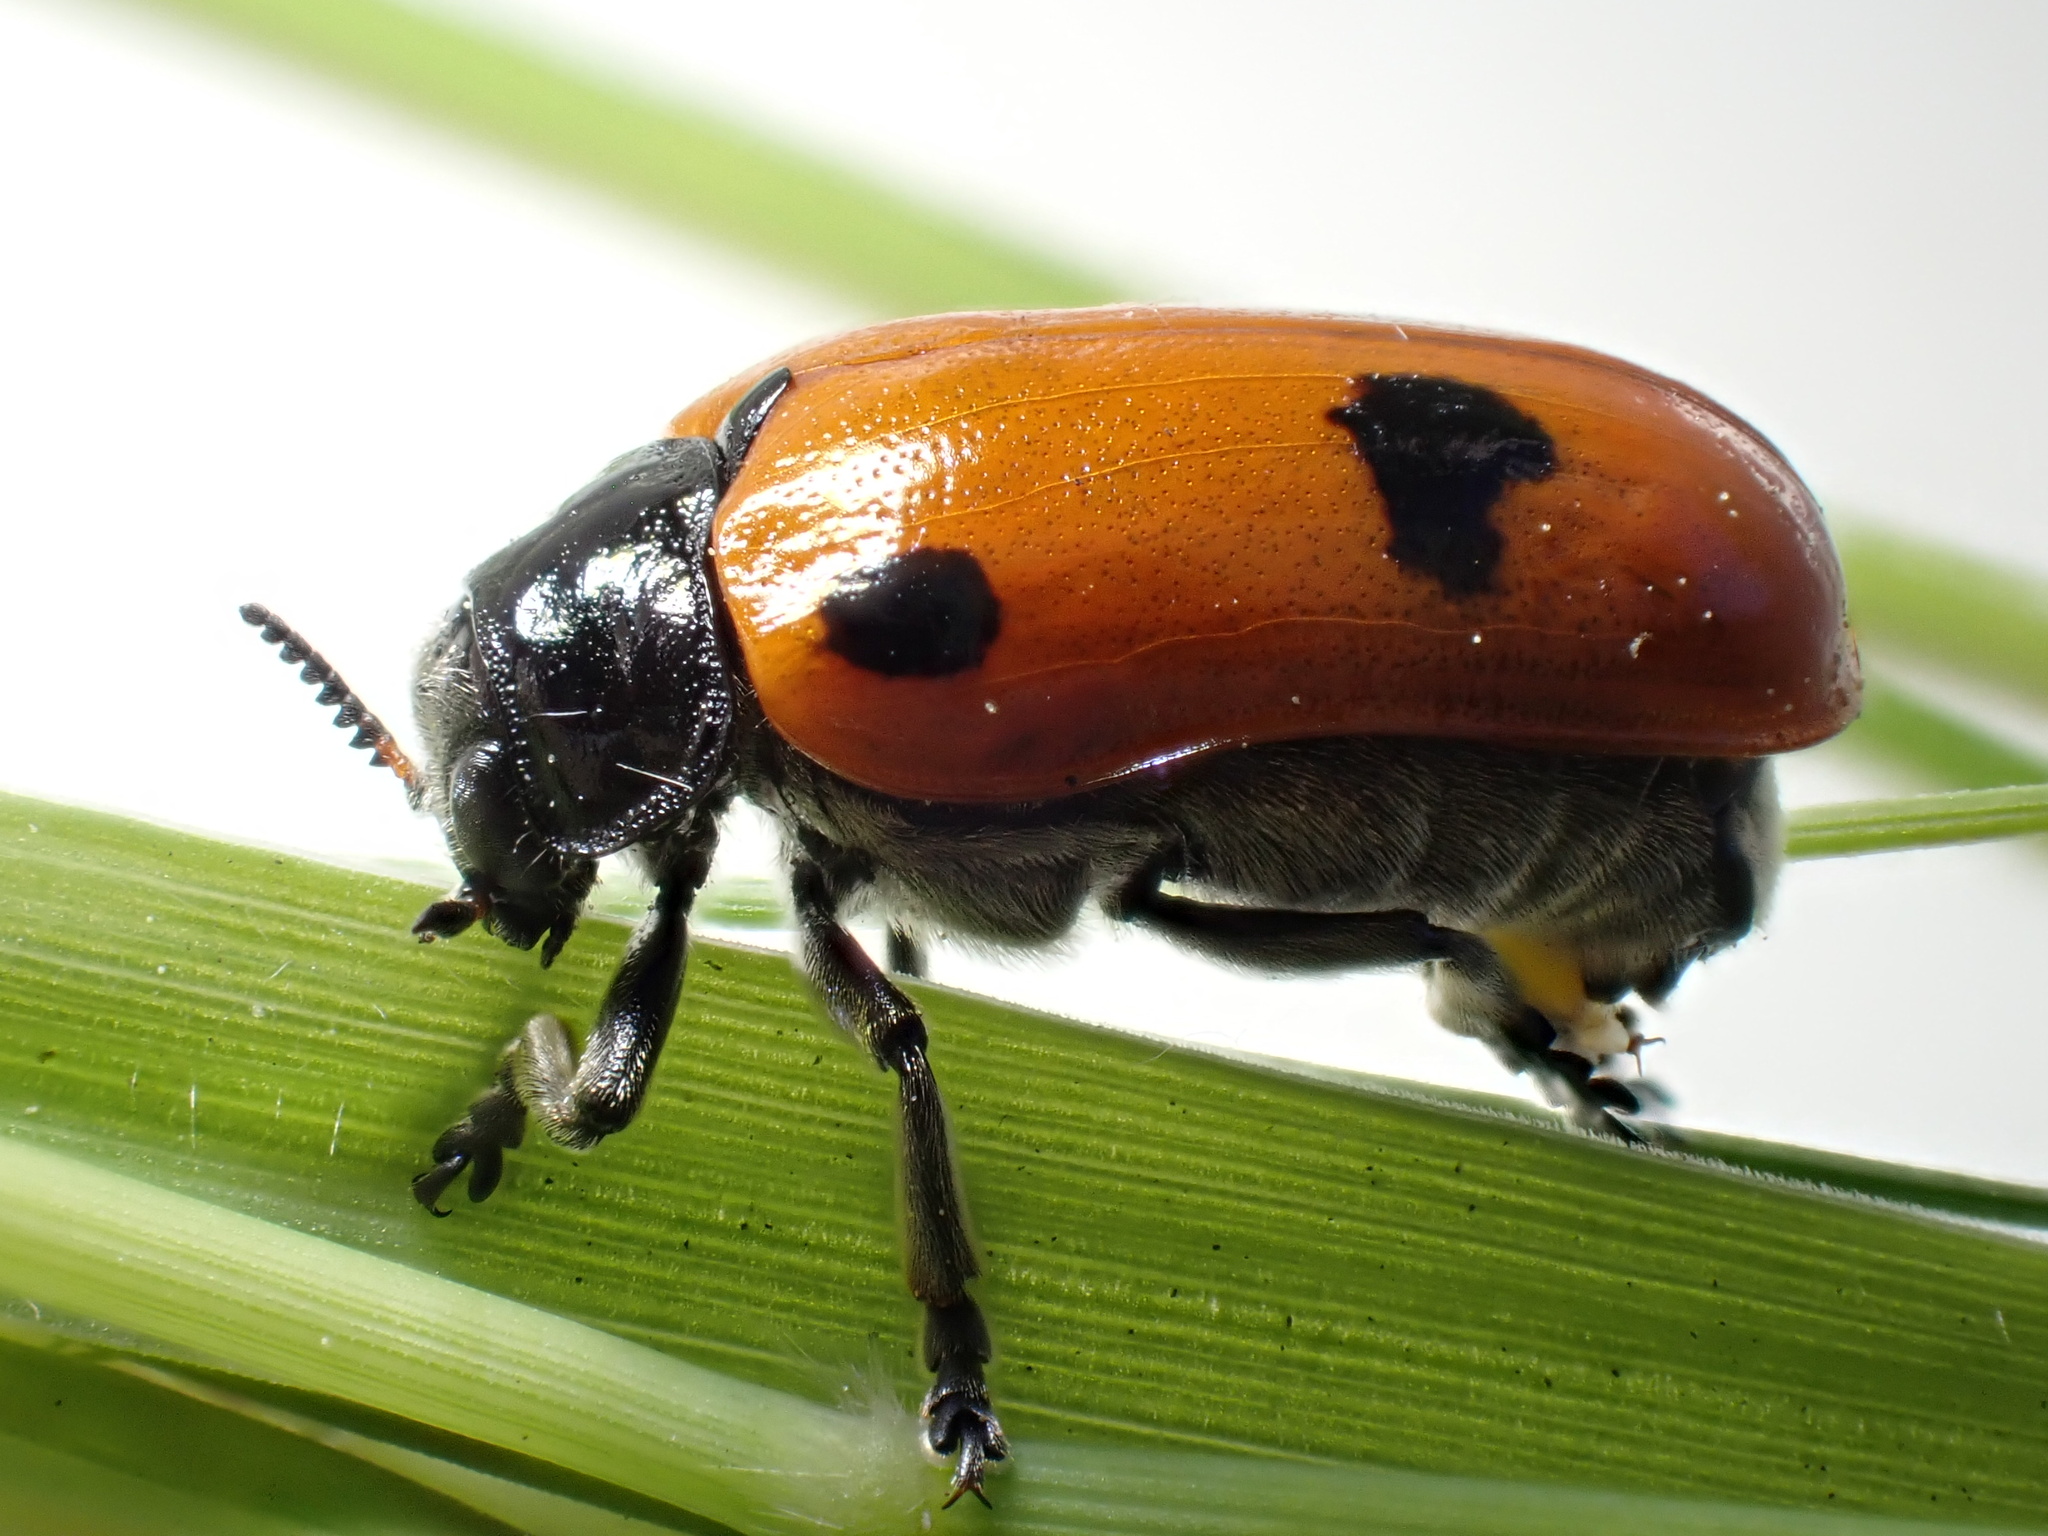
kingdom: Animalia
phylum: Arthropoda
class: Insecta
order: Coleoptera
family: Chrysomelidae
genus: Clytra
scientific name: Clytra quadripunctata
